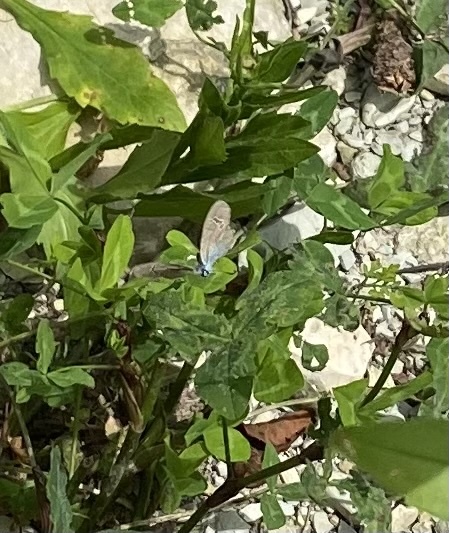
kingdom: Animalia
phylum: Arthropoda
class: Insecta
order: Lepidoptera
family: Lycaenidae
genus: Glaucopsyche
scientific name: Glaucopsyche alexis
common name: Green-underside blue
